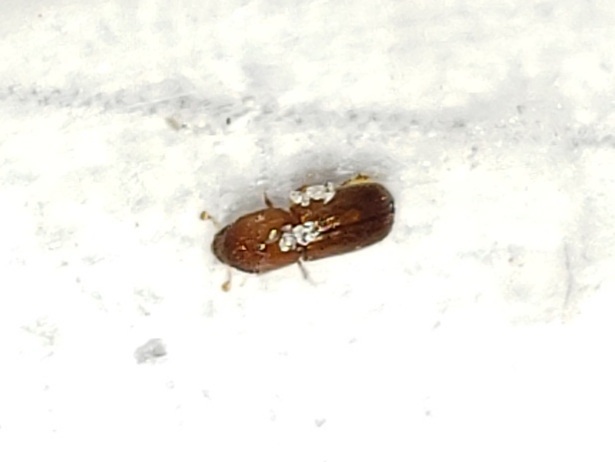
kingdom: Animalia
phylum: Arthropoda
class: Insecta
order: Coleoptera
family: Curculionidae
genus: Xyleborus
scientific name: Xyleborus affinis
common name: Ambrosia beetle
